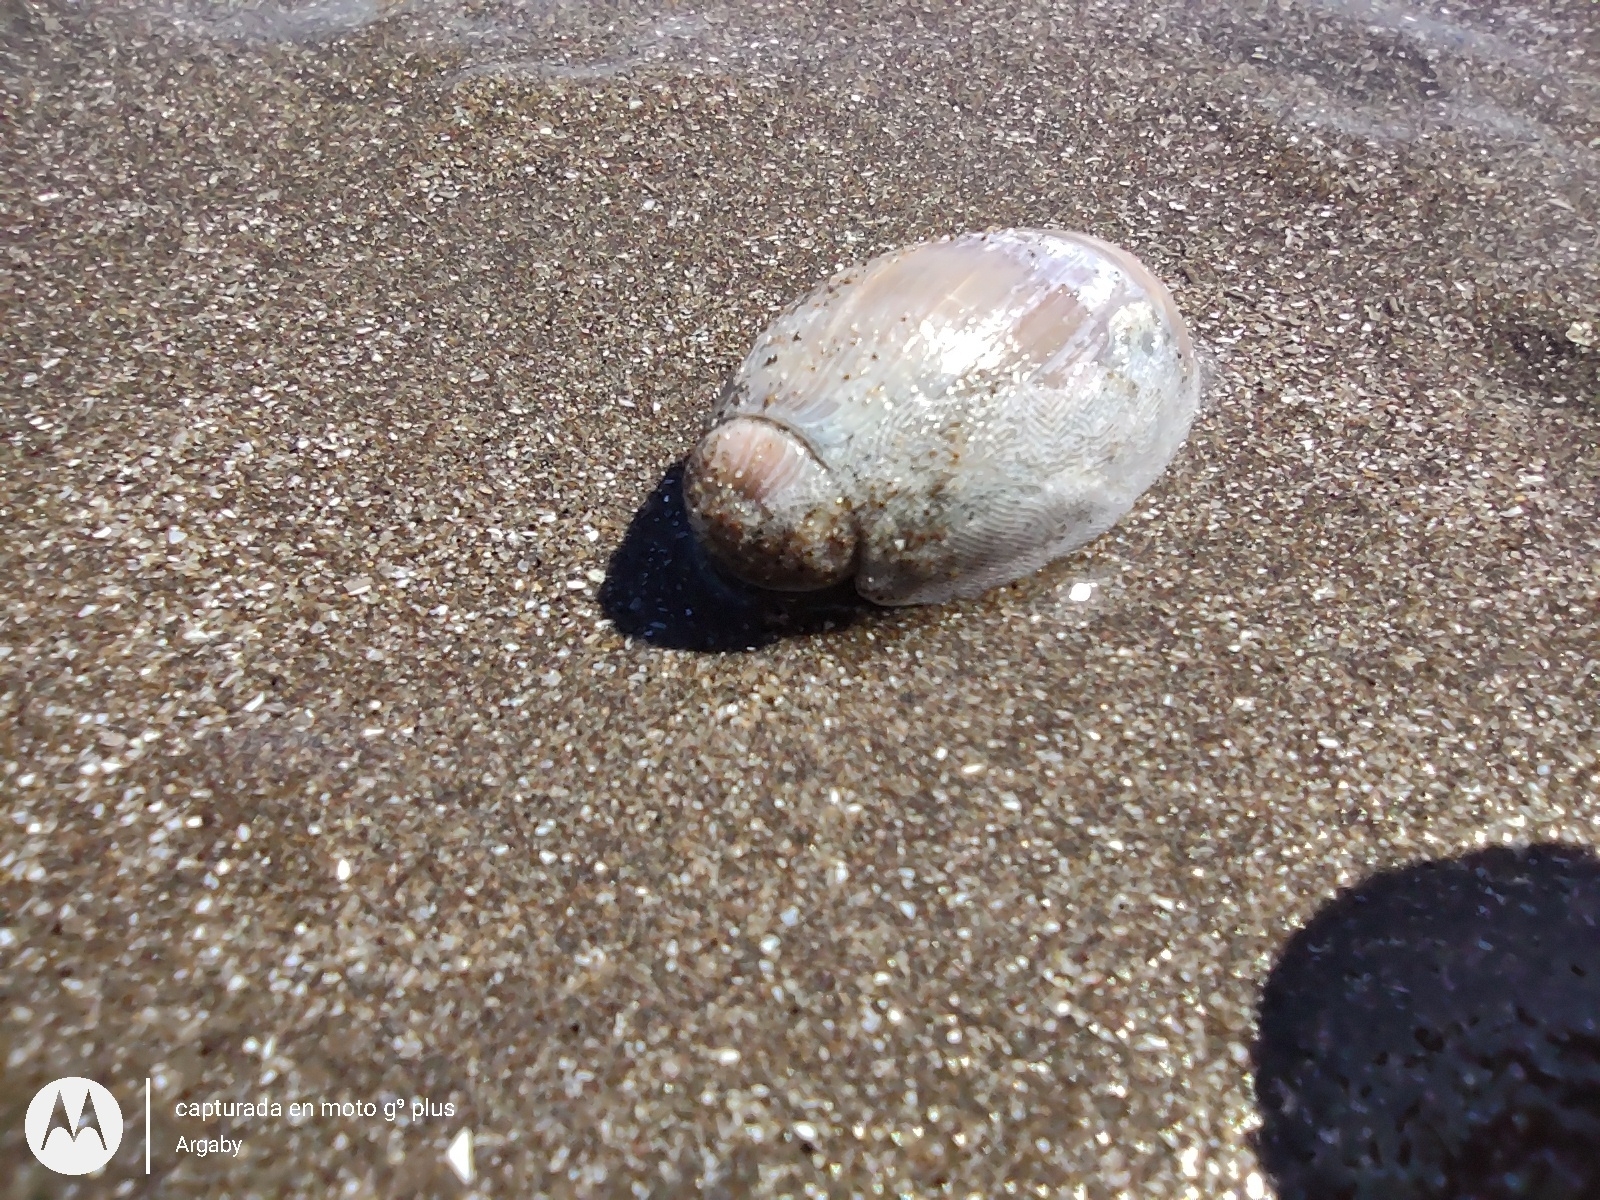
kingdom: Animalia
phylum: Mollusca
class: Gastropoda
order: Neogastropoda
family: Olividae
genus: Olivancillaria
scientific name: Olivancillaria carcellesi
